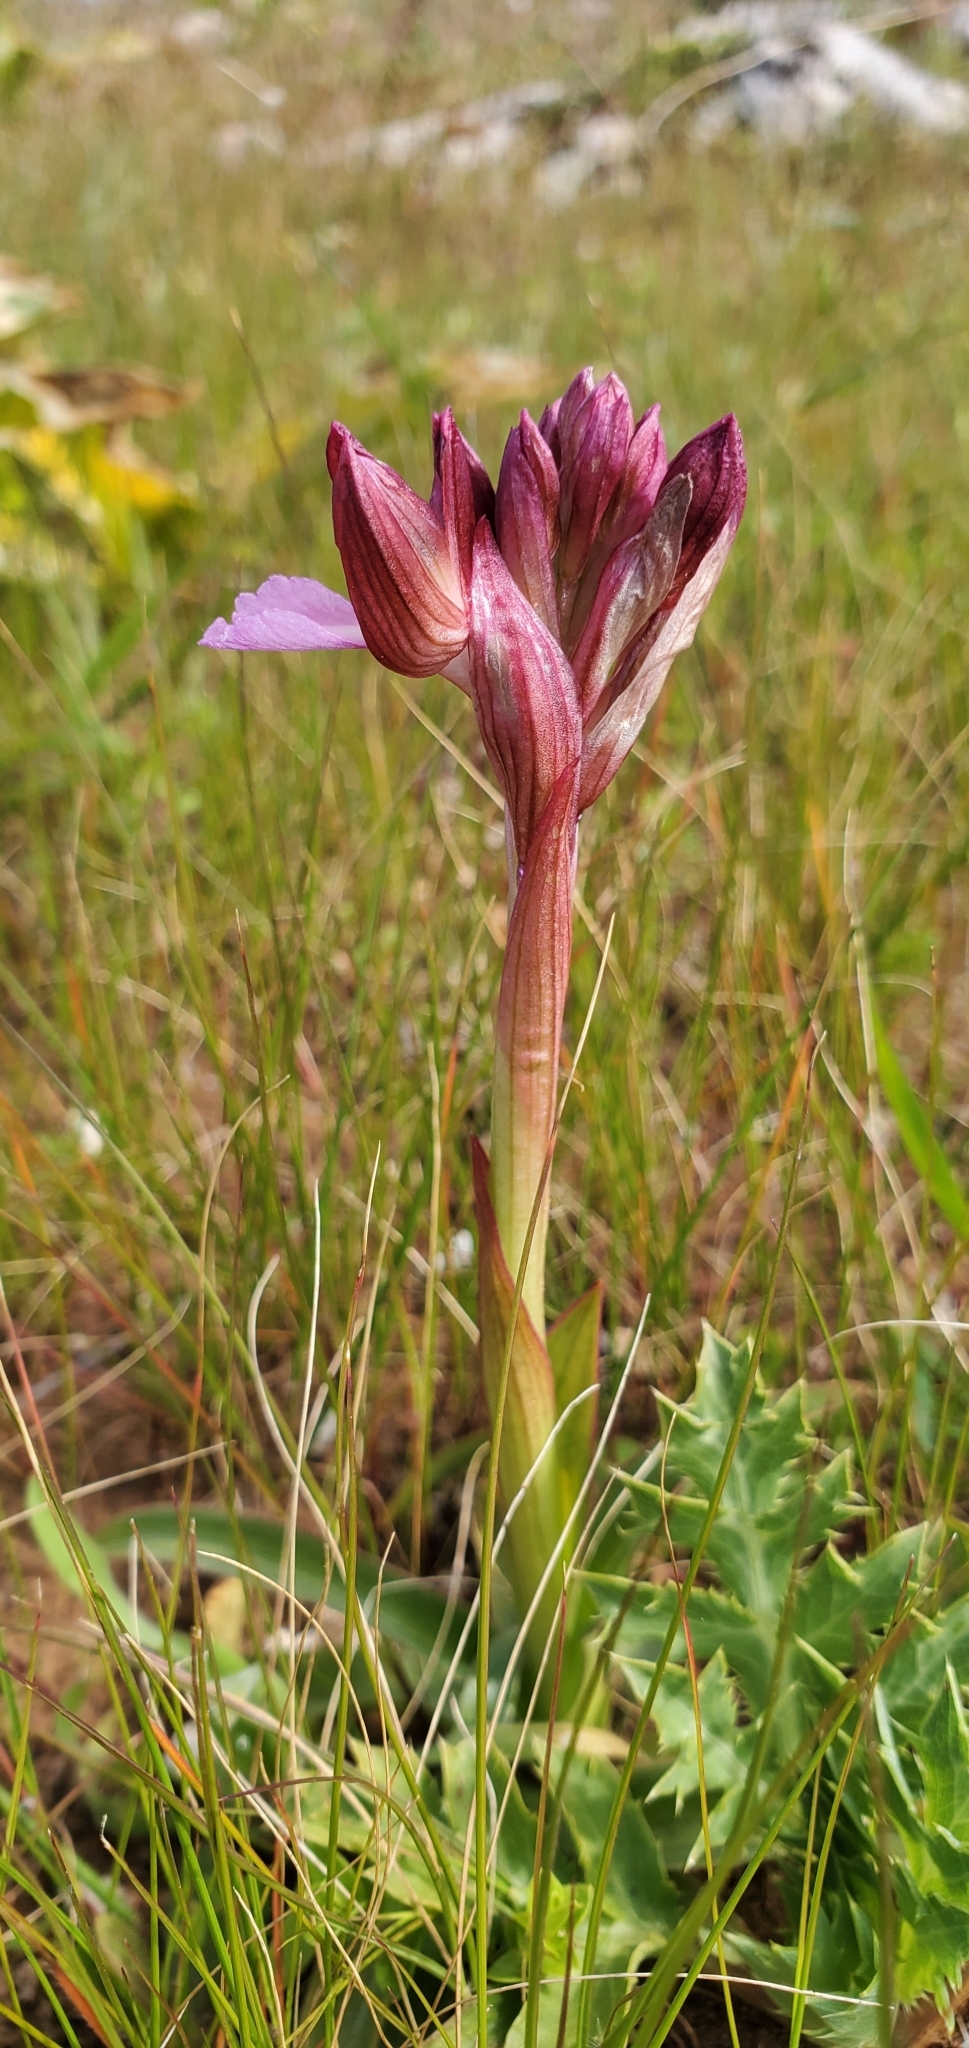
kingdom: Plantae
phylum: Tracheophyta
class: Liliopsida
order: Asparagales
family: Orchidaceae
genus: Anacamptis
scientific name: Anacamptis papilionacea
